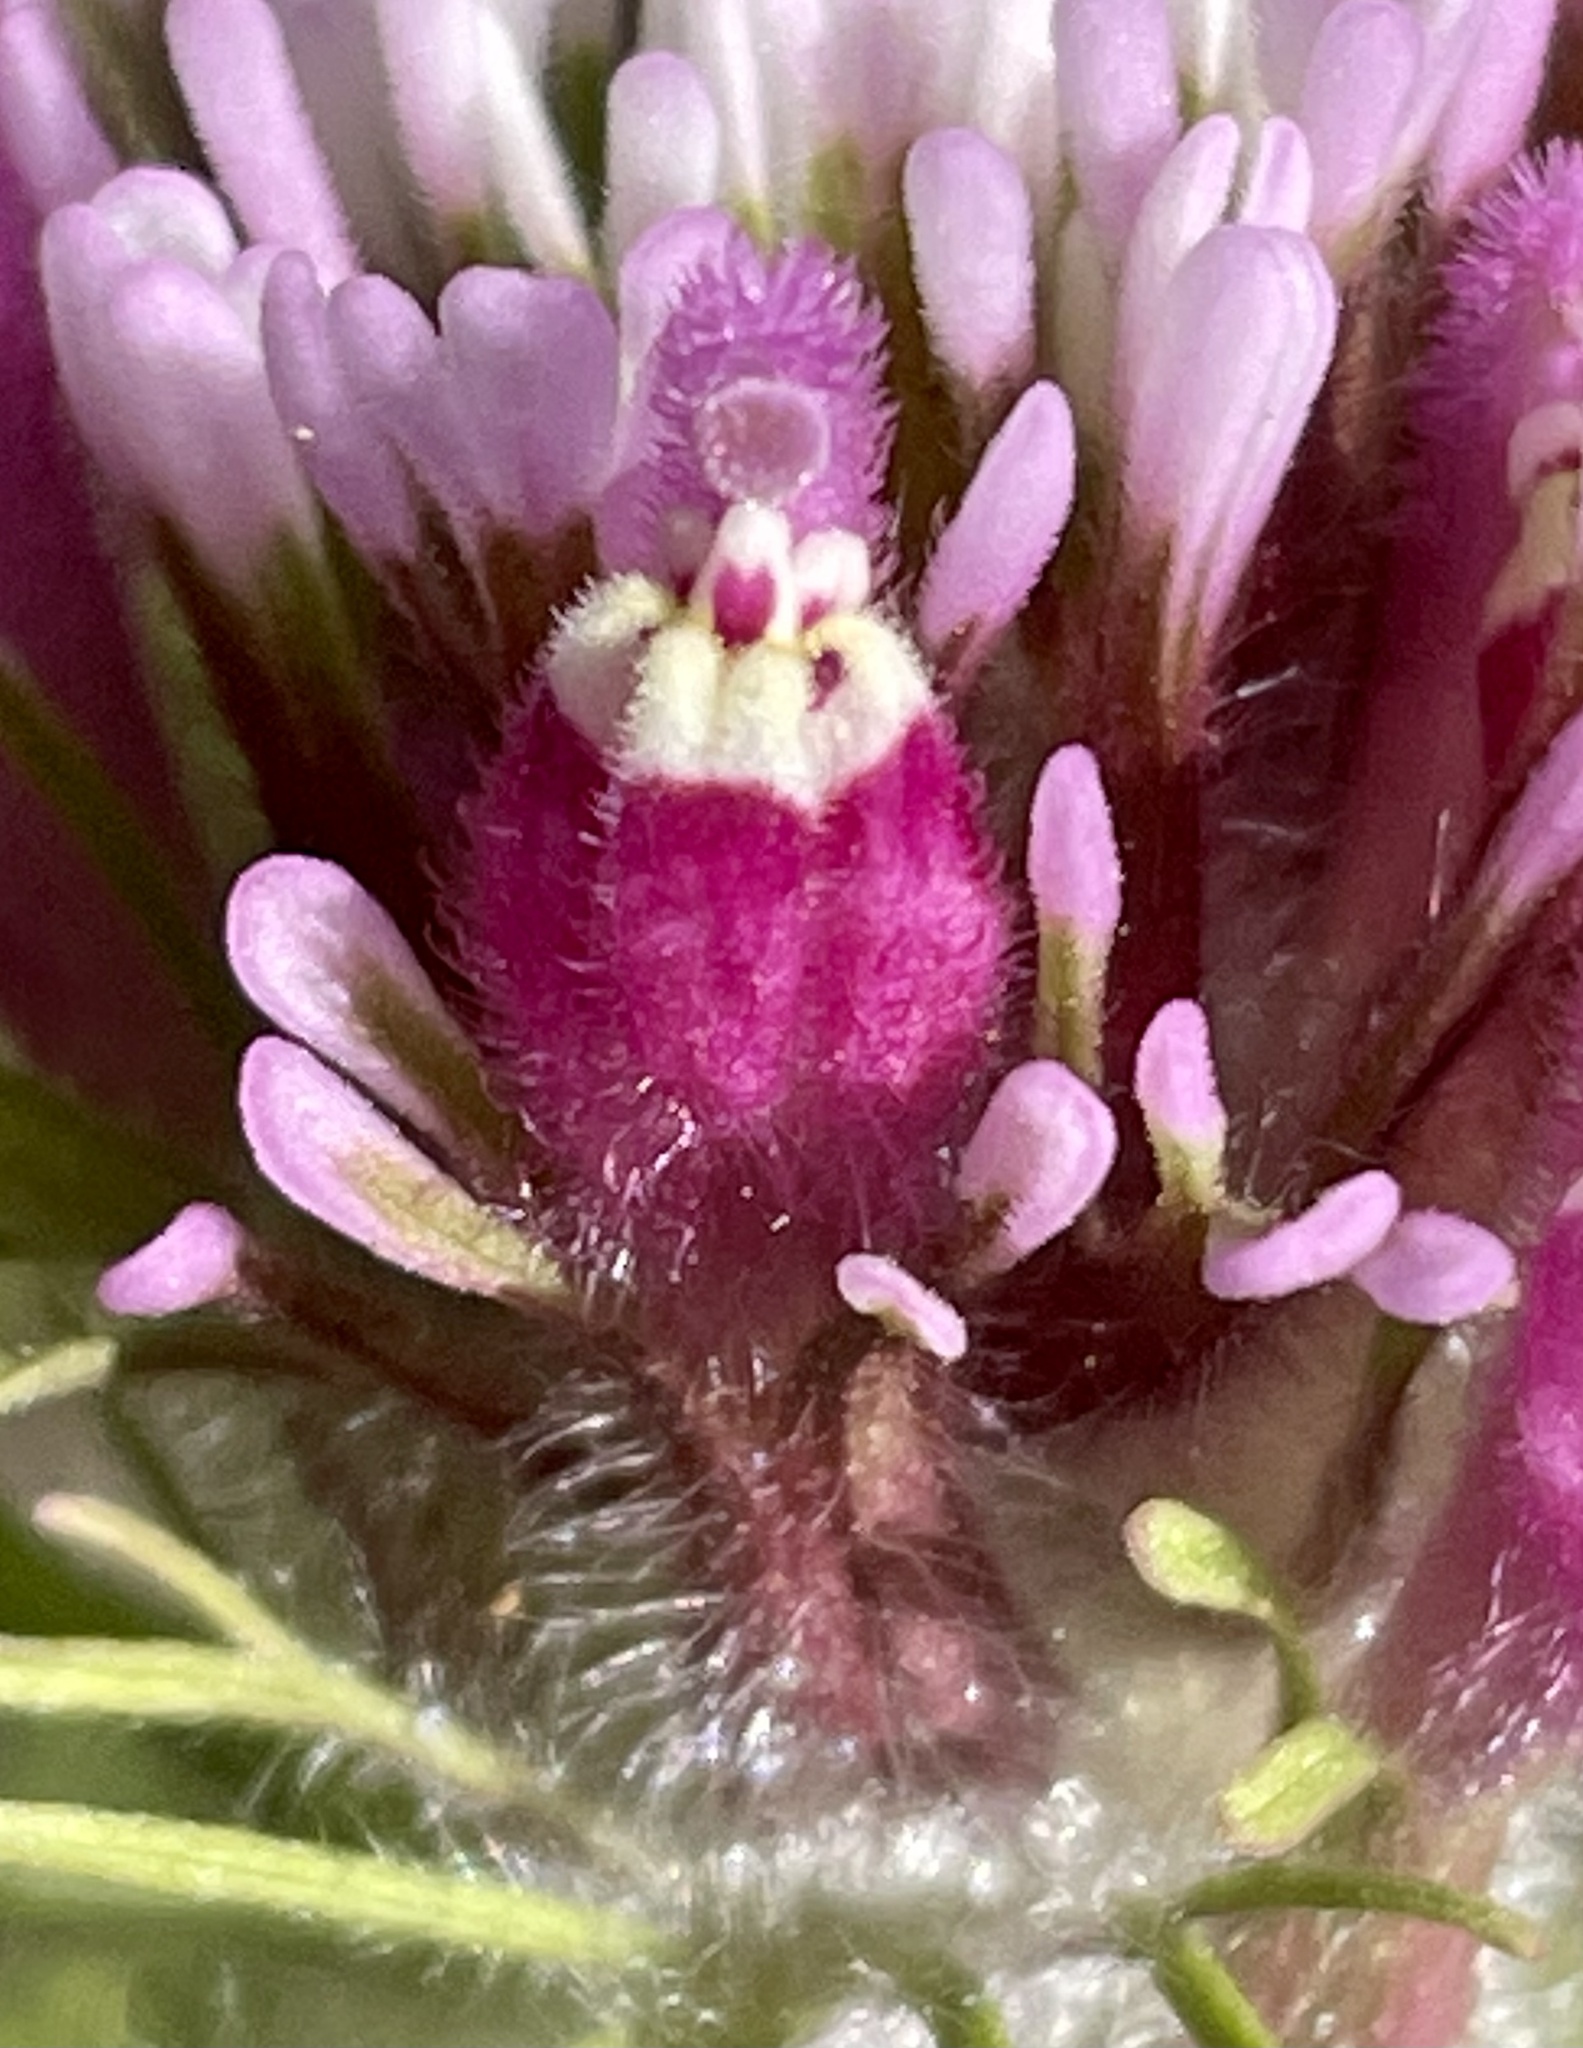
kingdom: Plantae
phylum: Tracheophyta
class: Magnoliopsida
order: Lamiales
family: Orobanchaceae
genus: Castilleja
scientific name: Castilleja exserta
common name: Purple owl-clover
